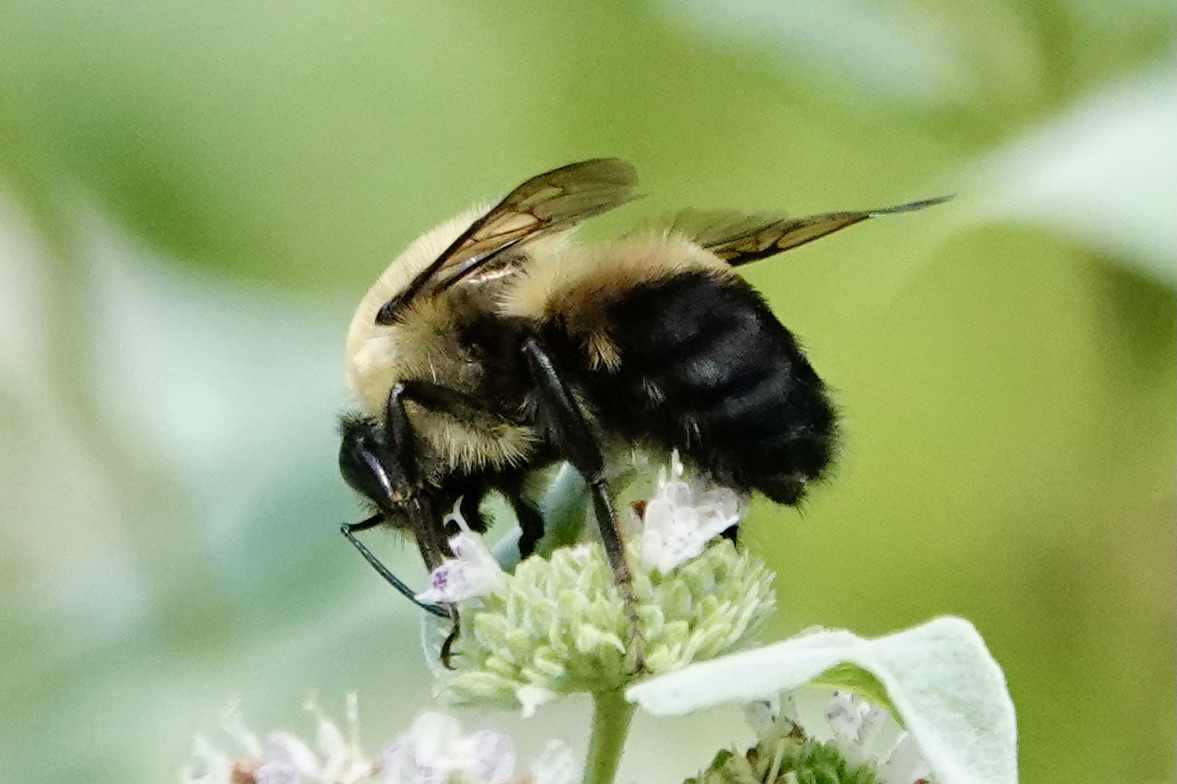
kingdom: Animalia
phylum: Arthropoda
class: Insecta
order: Hymenoptera
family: Apidae
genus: Bombus
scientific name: Bombus griseocollis
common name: Brown-belted bumble bee
